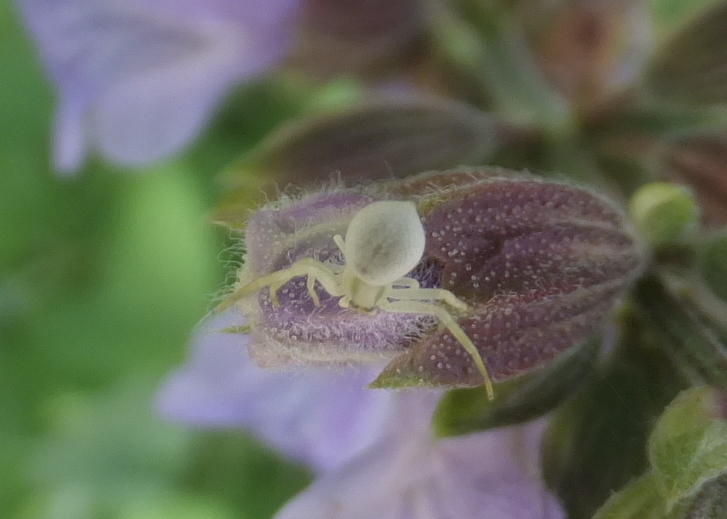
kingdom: Animalia
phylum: Arthropoda
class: Arachnida
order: Araneae
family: Thomisidae
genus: Misumena
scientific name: Misumena vatia
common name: Goldenrod crab spider
